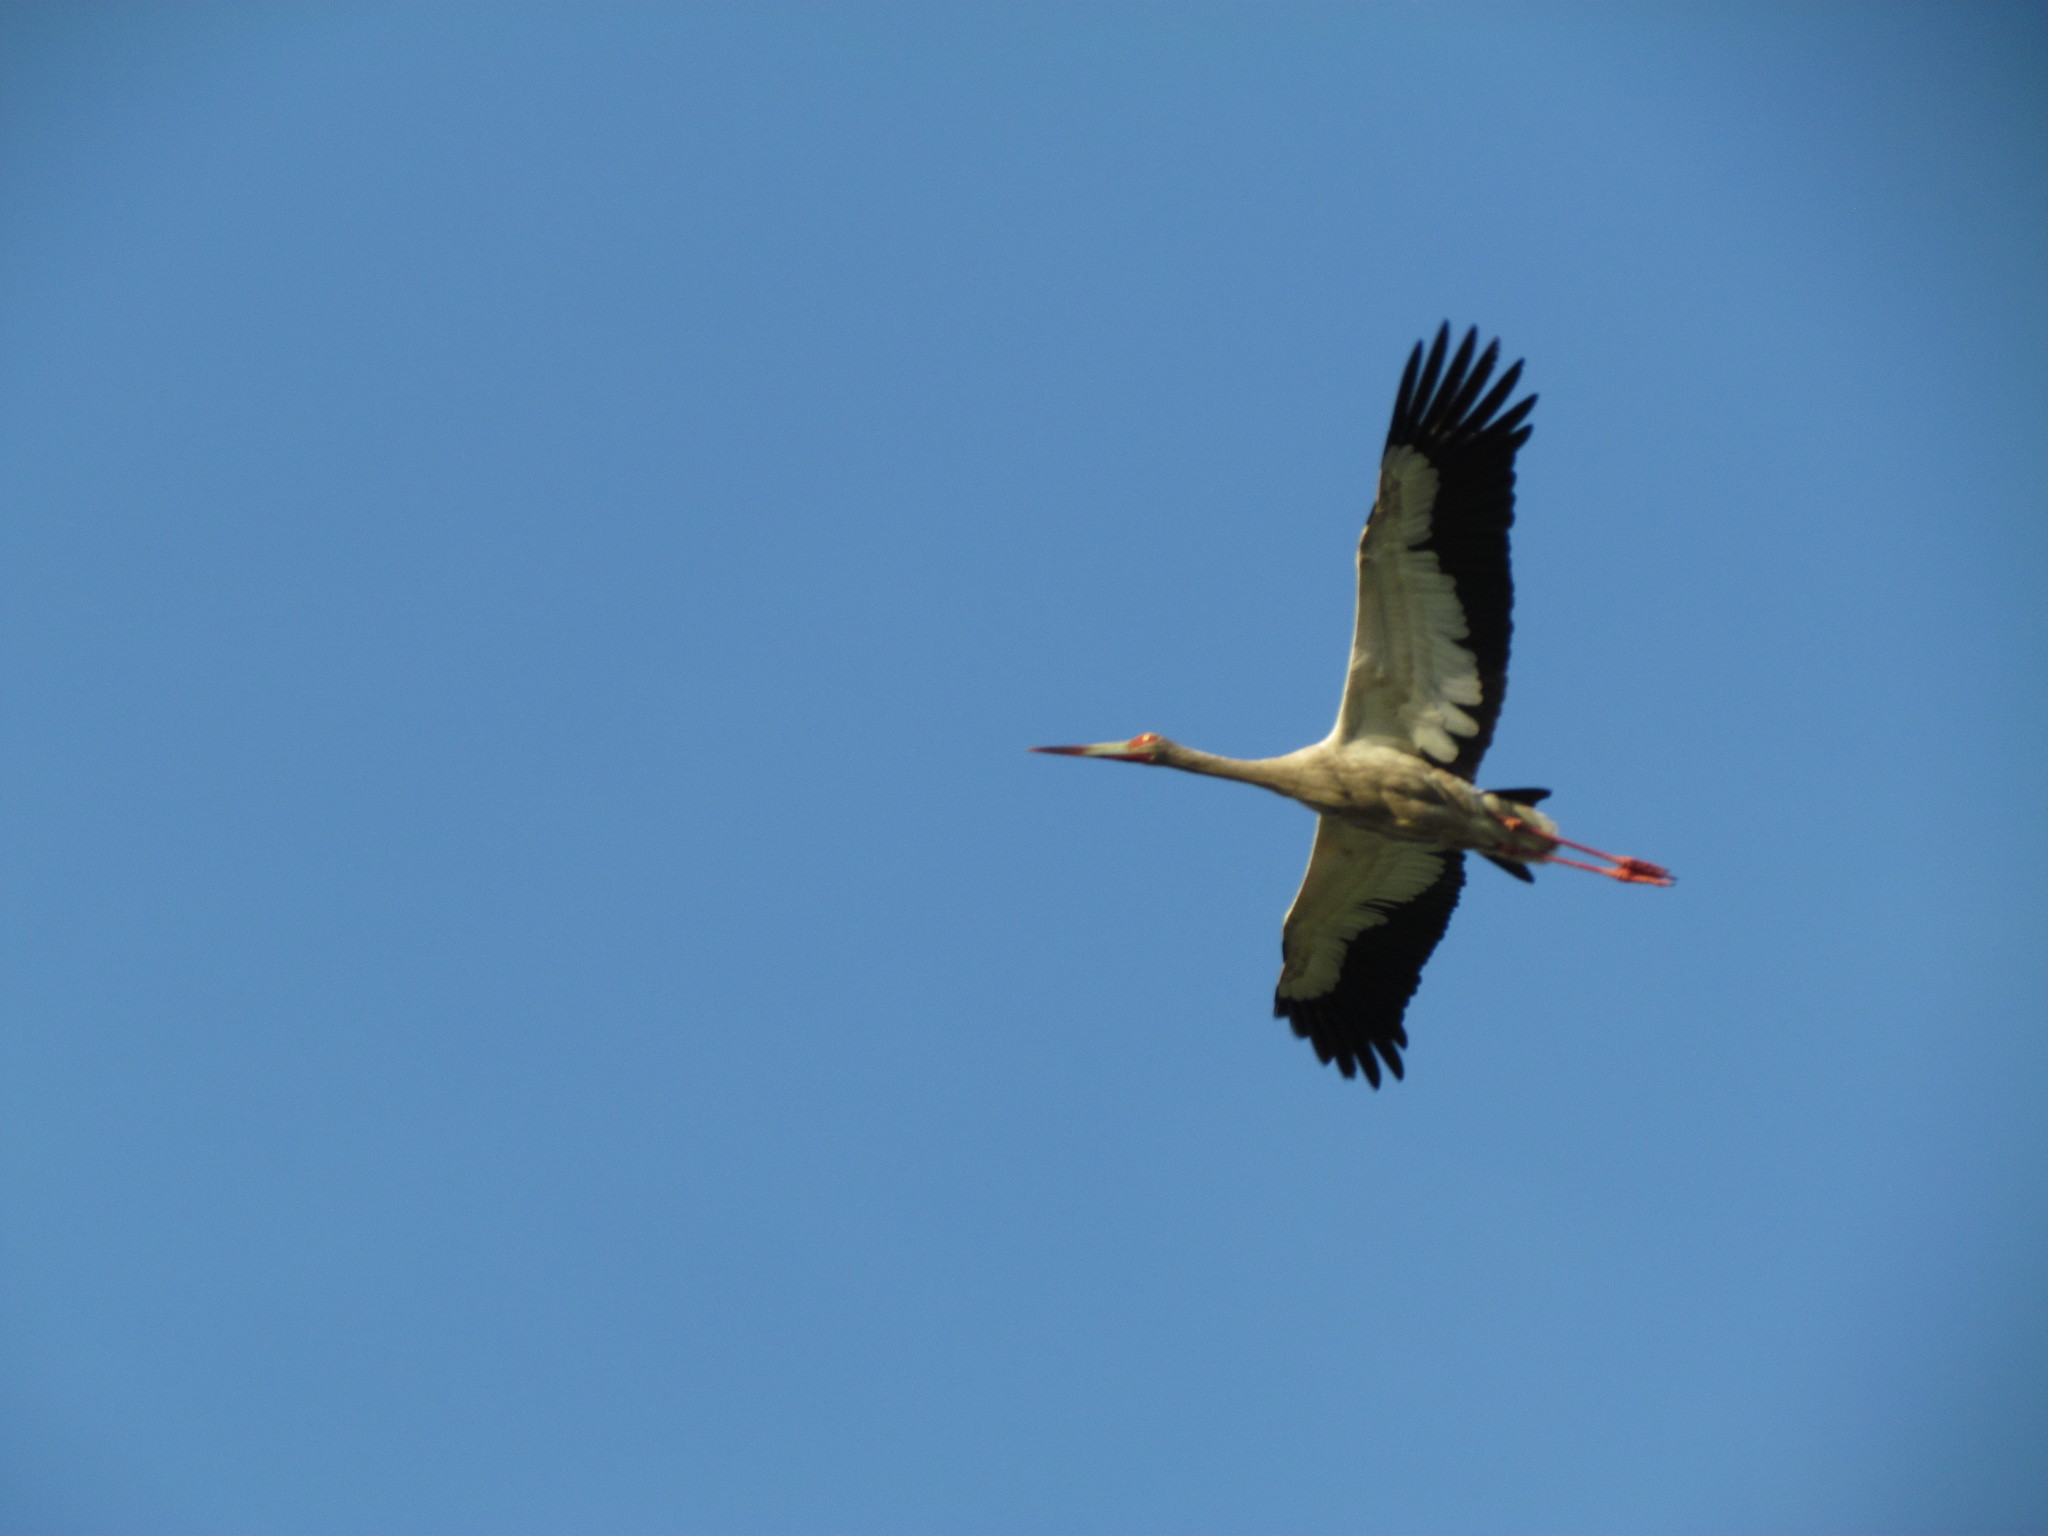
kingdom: Animalia
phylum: Chordata
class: Aves
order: Ciconiiformes
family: Ciconiidae
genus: Ciconia
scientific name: Ciconia maguari
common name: Maguari stork
